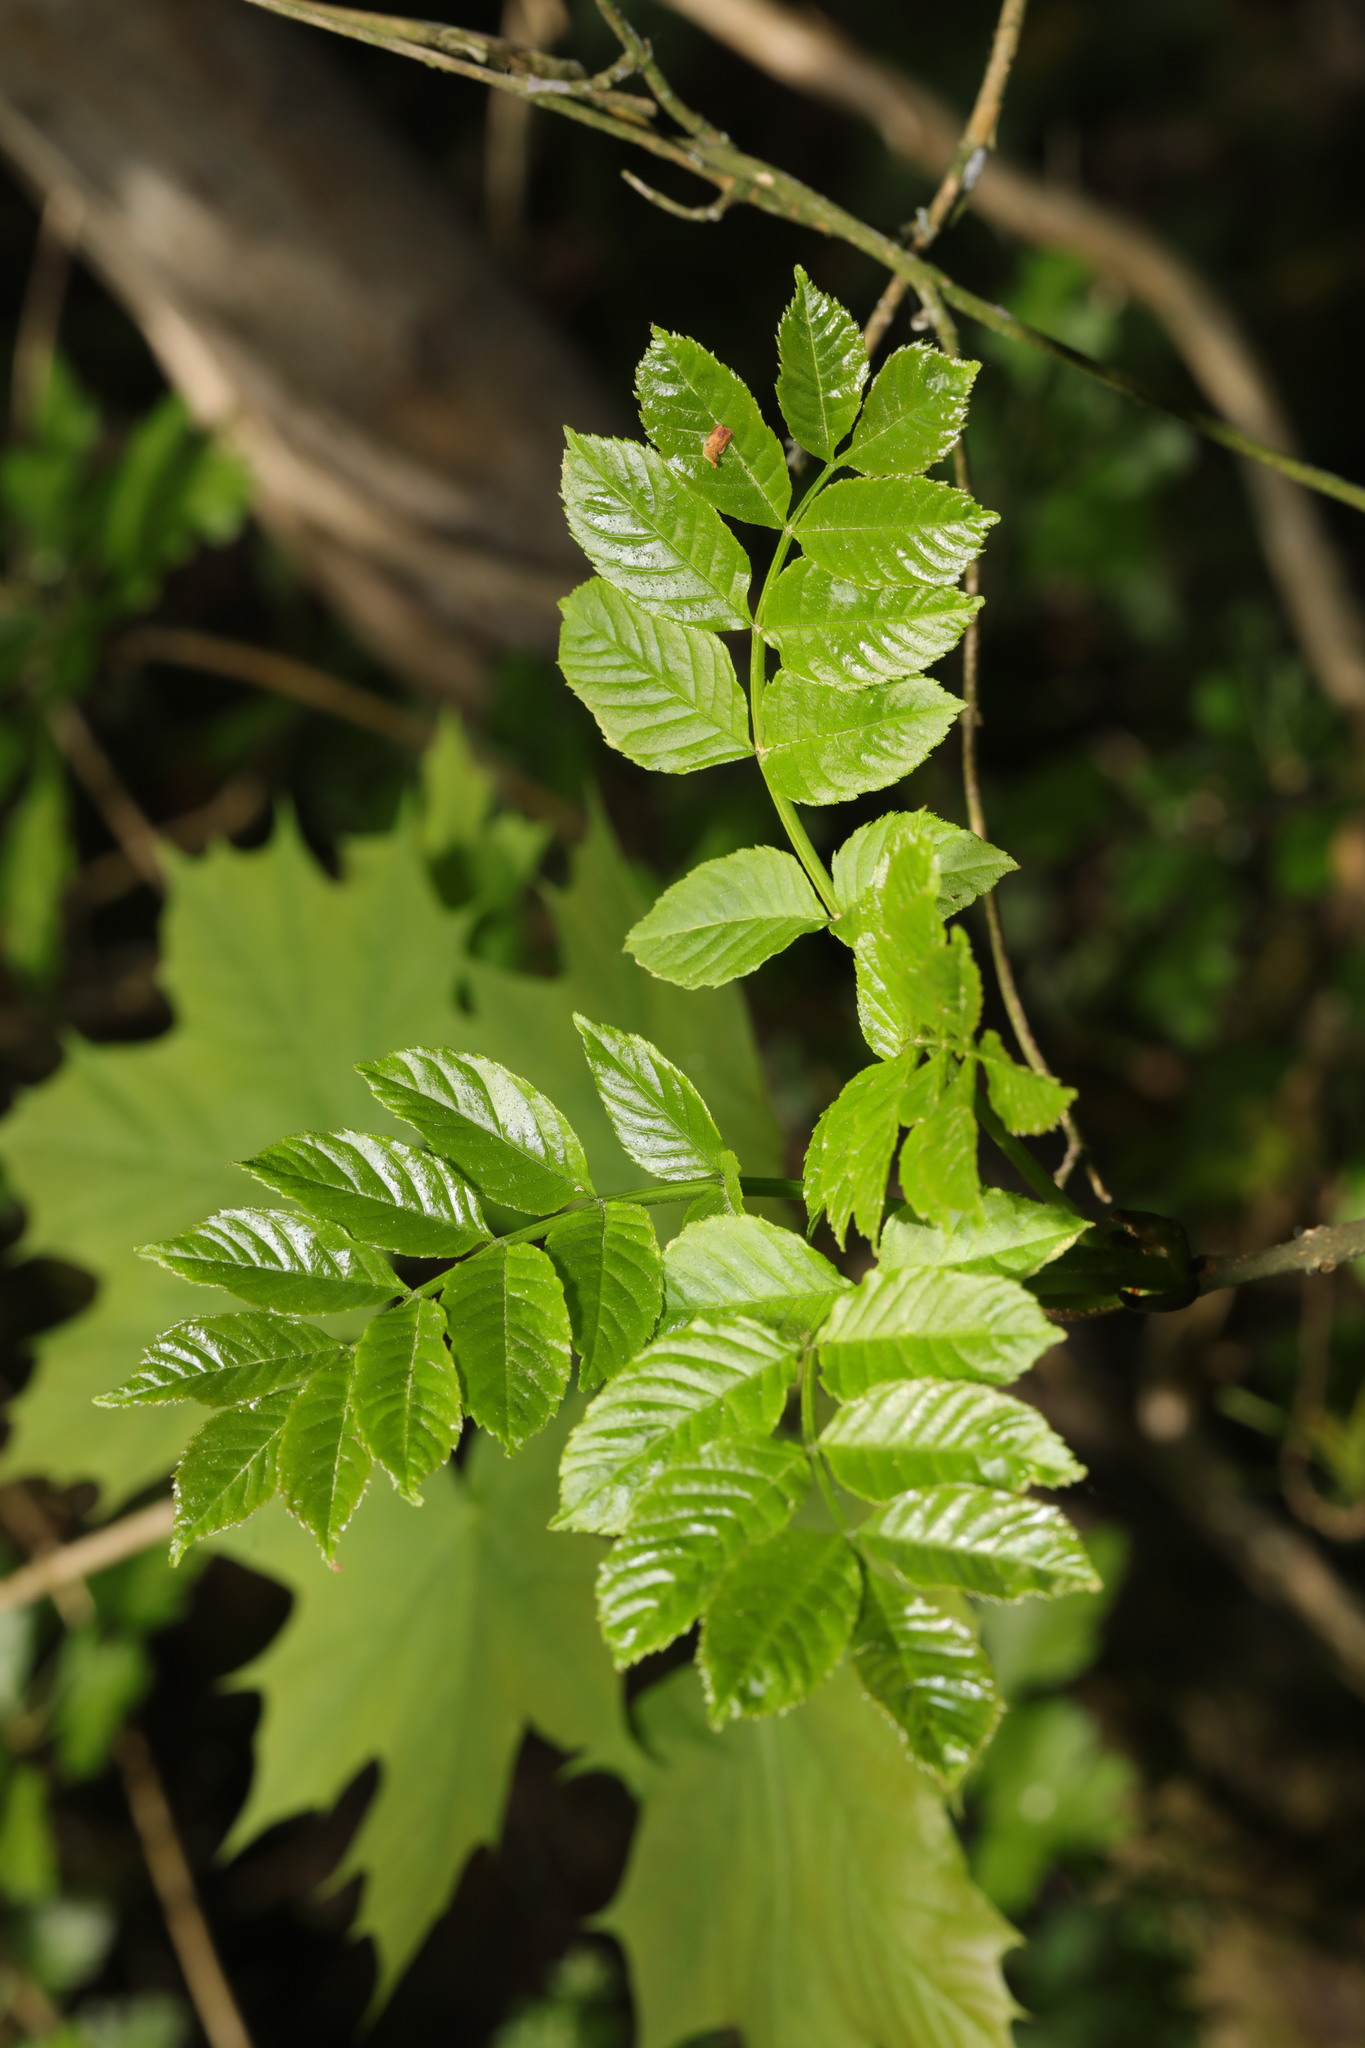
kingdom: Plantae
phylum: Tracheophyta
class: Magnoliopsida
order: Lamiales
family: Oleaceae
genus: Fraxinus
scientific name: Fraxinus excelsior
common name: European ash
